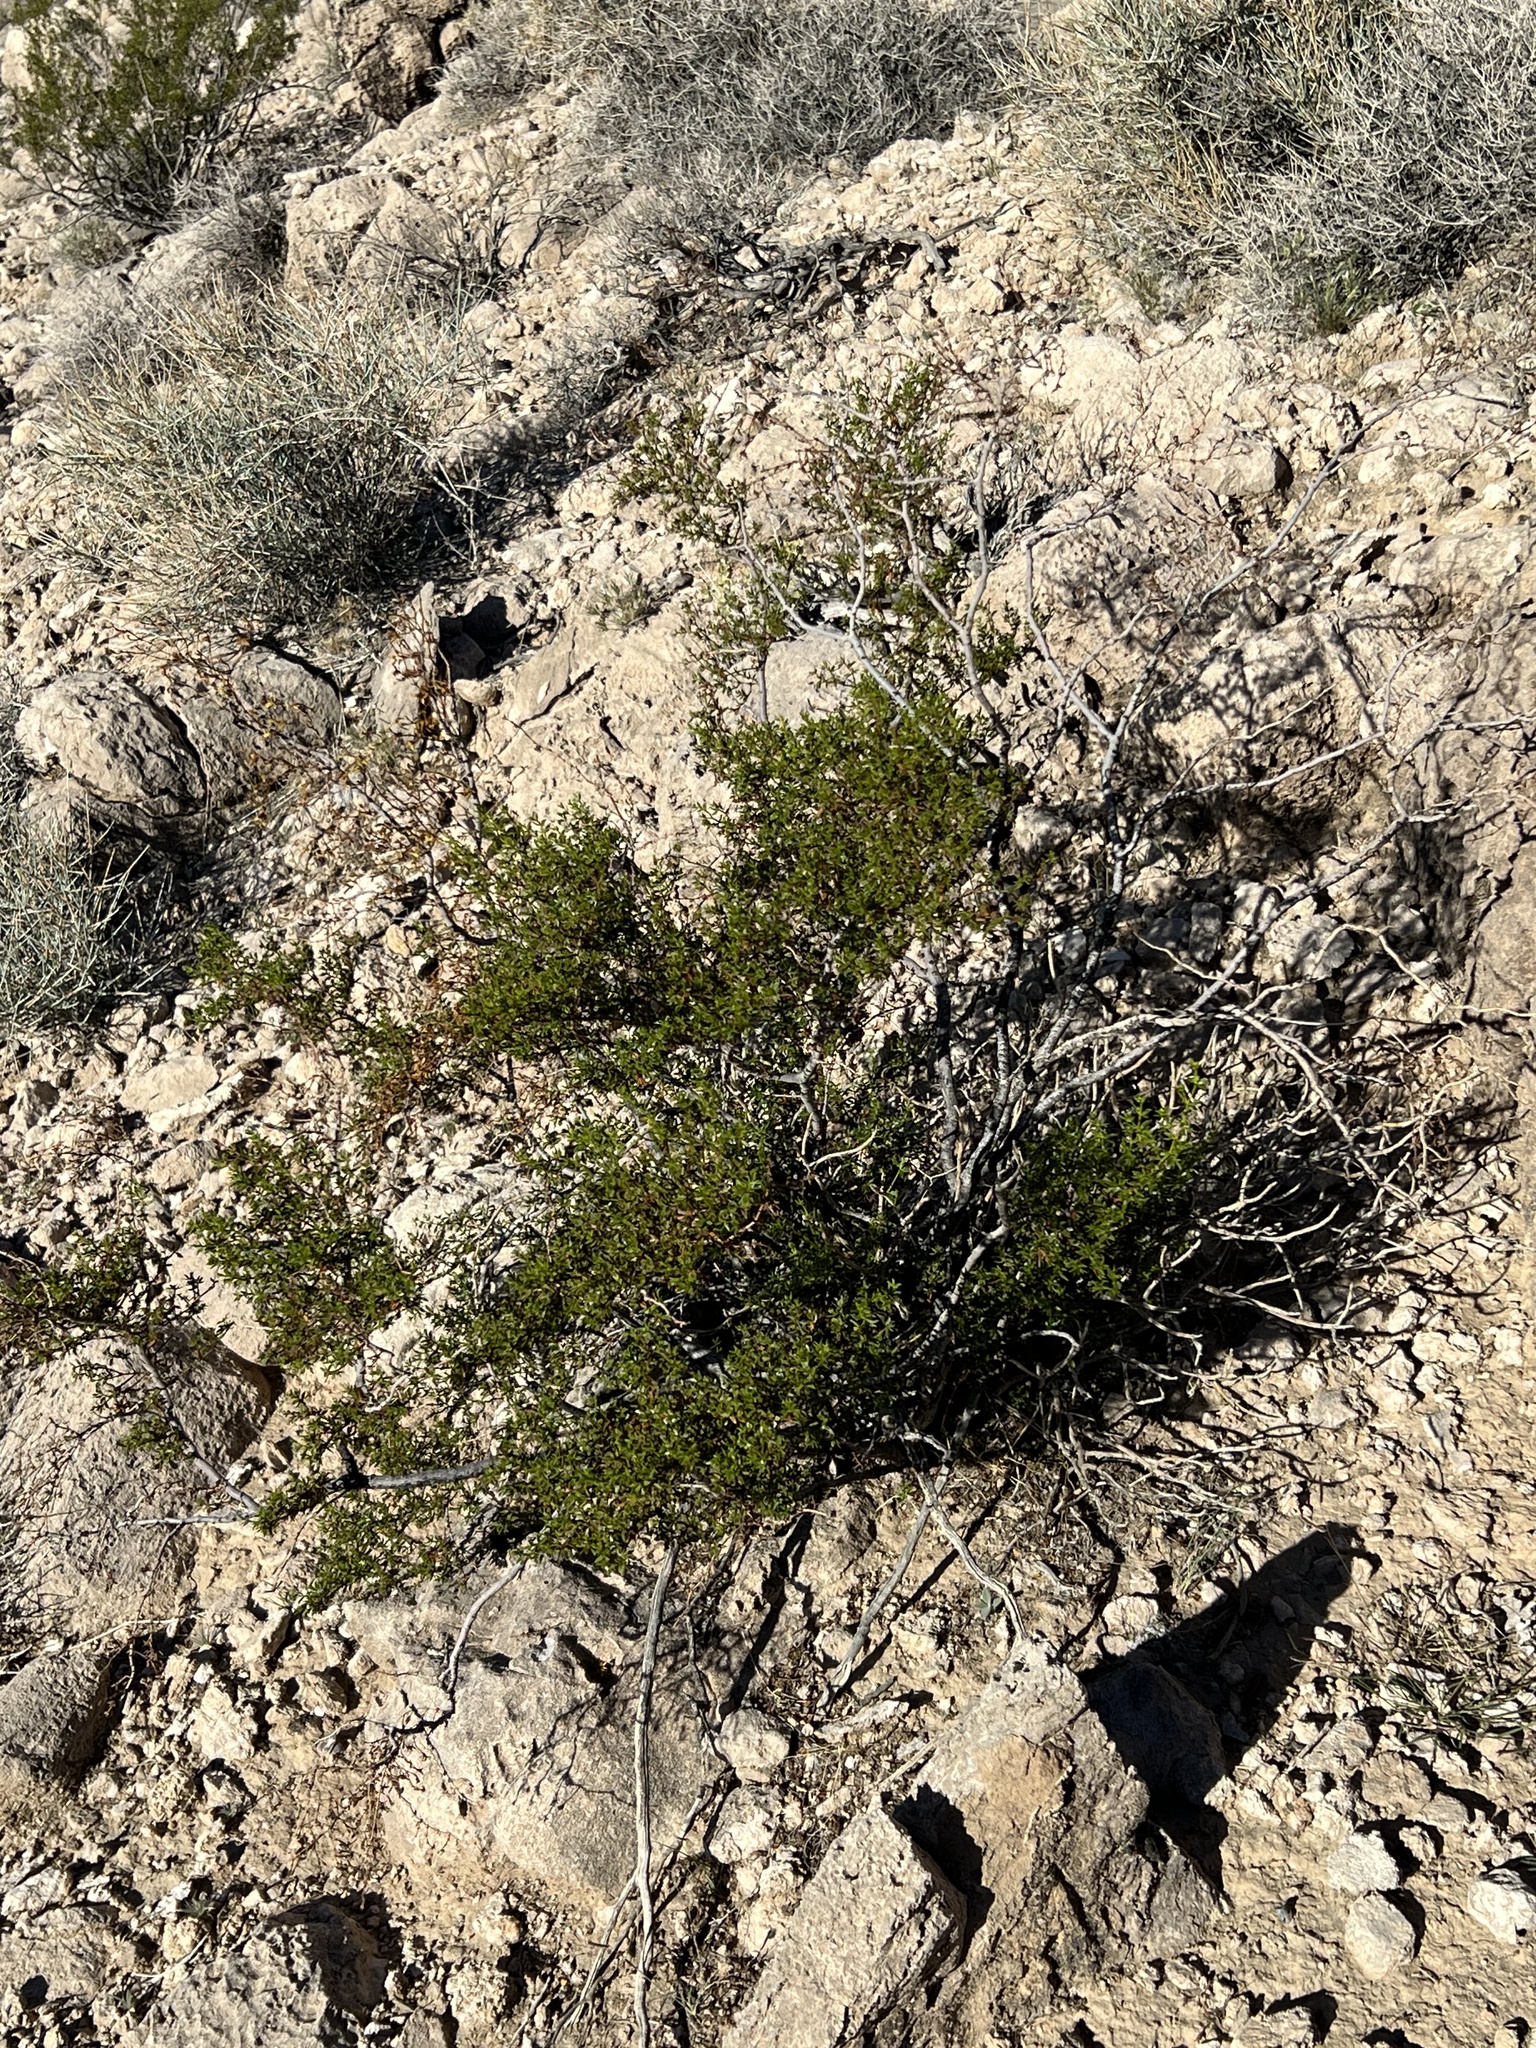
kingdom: Plantae
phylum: Tracheophyta
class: Magnoliopsida
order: Zygophyllales
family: Zygophyllaceae
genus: Larrea
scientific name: Larrea tridentata
